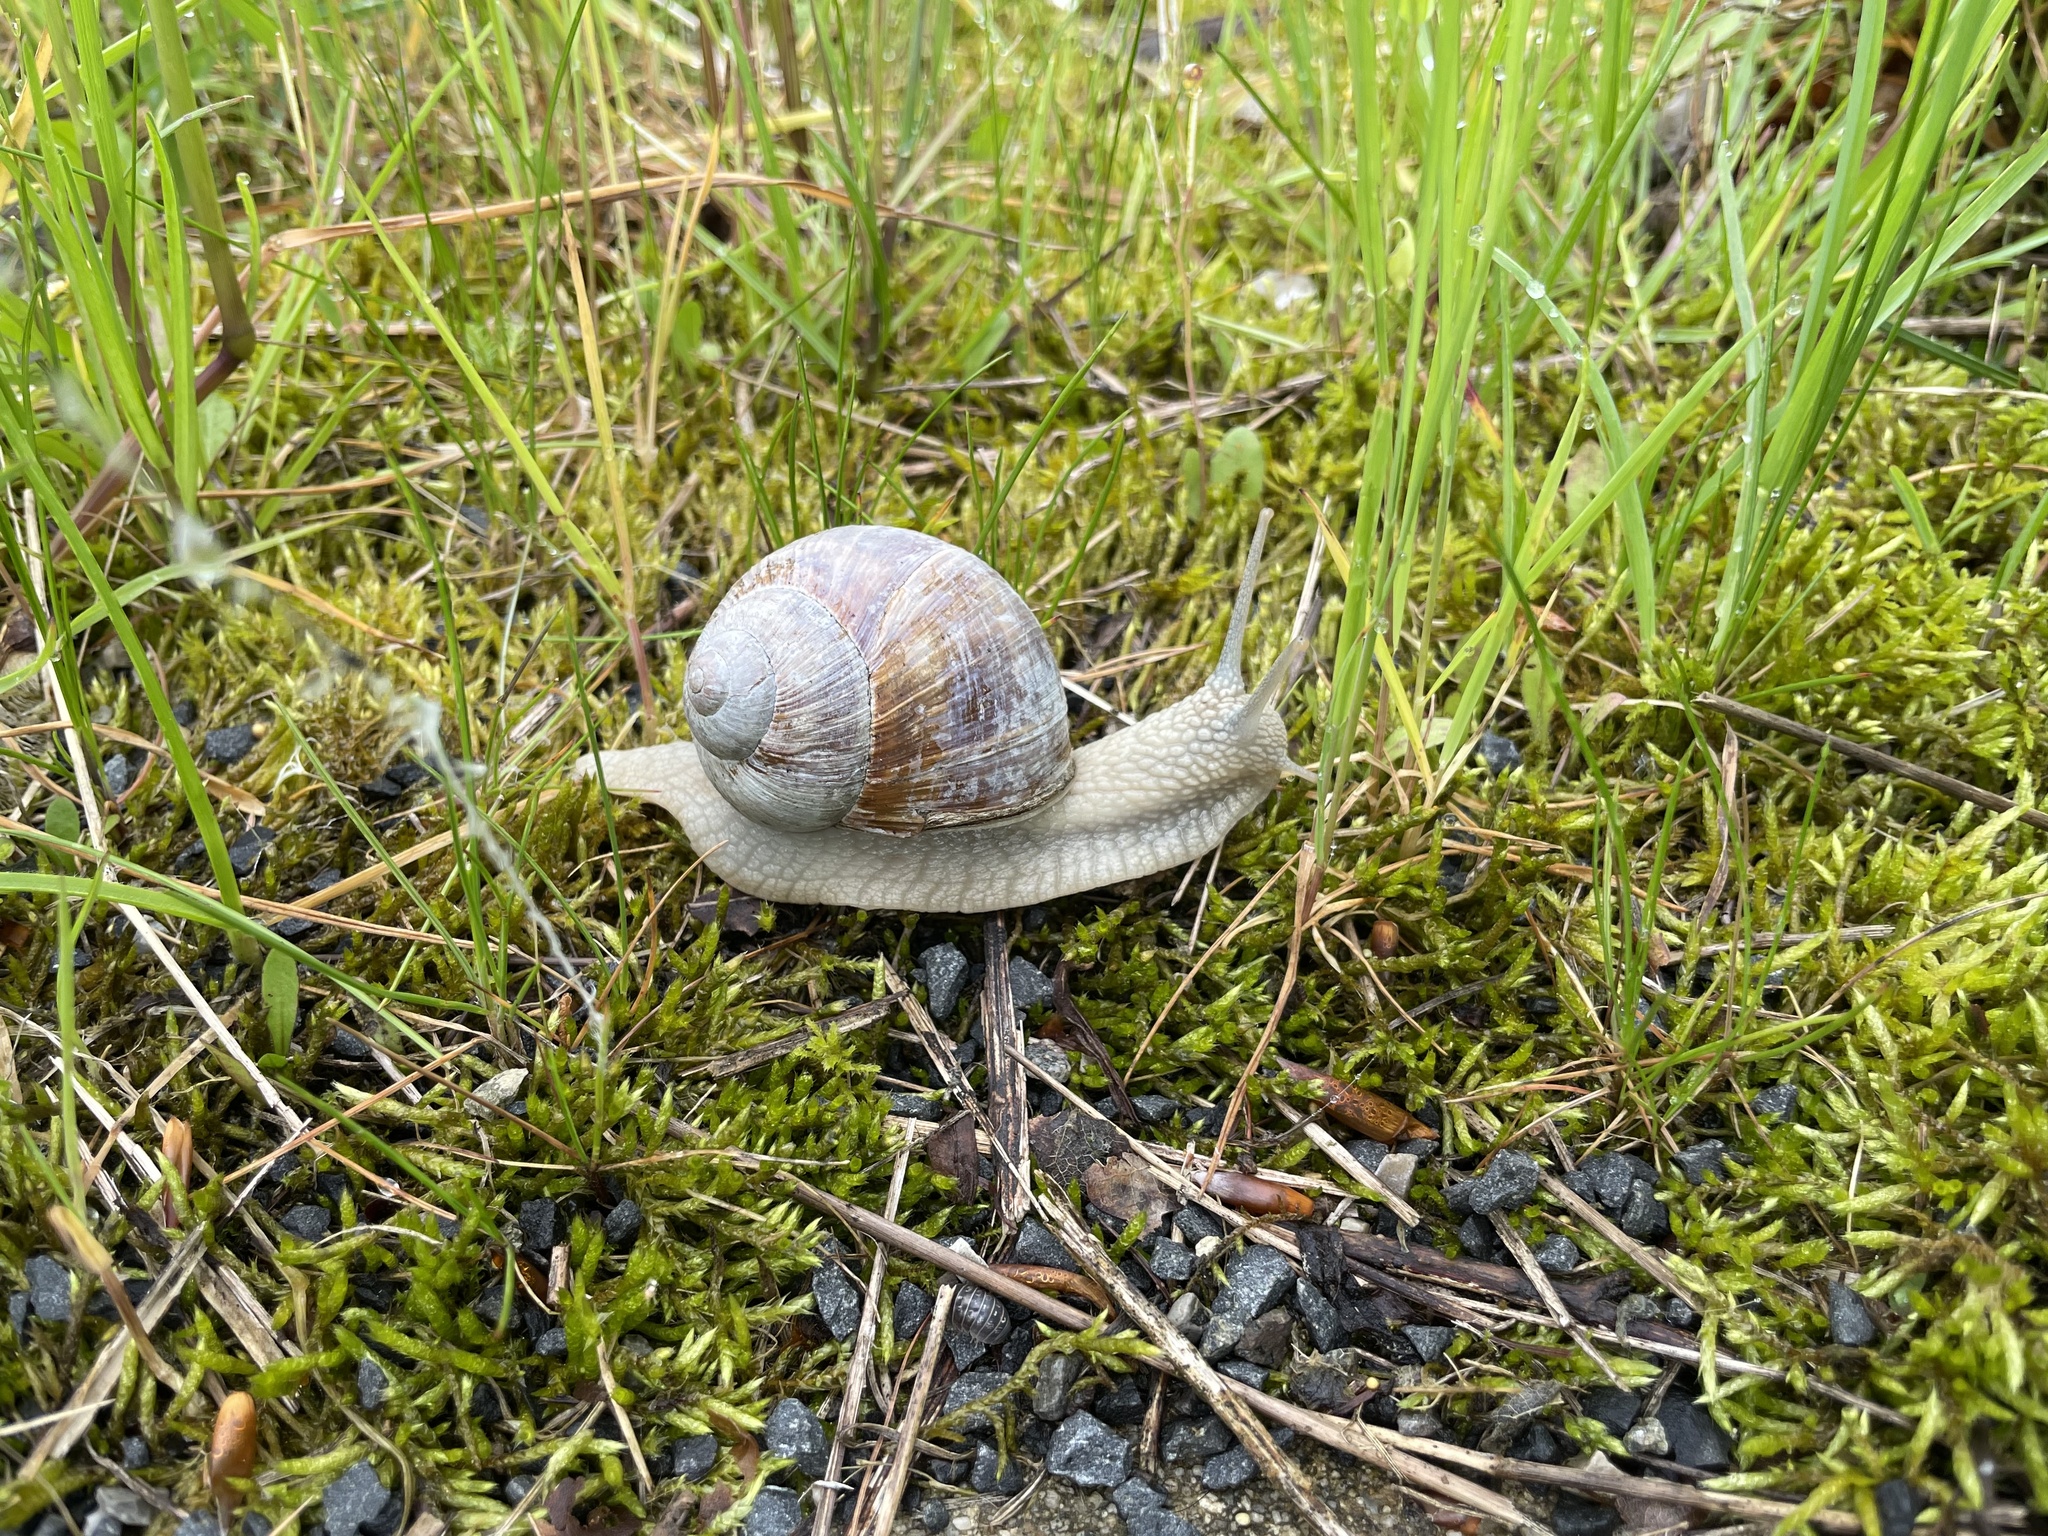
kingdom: Animalia
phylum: Mollusca
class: Gastropoda
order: Stylommatophora
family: Helicidae
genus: Helix
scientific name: Helix pomatia
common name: Roman snail
